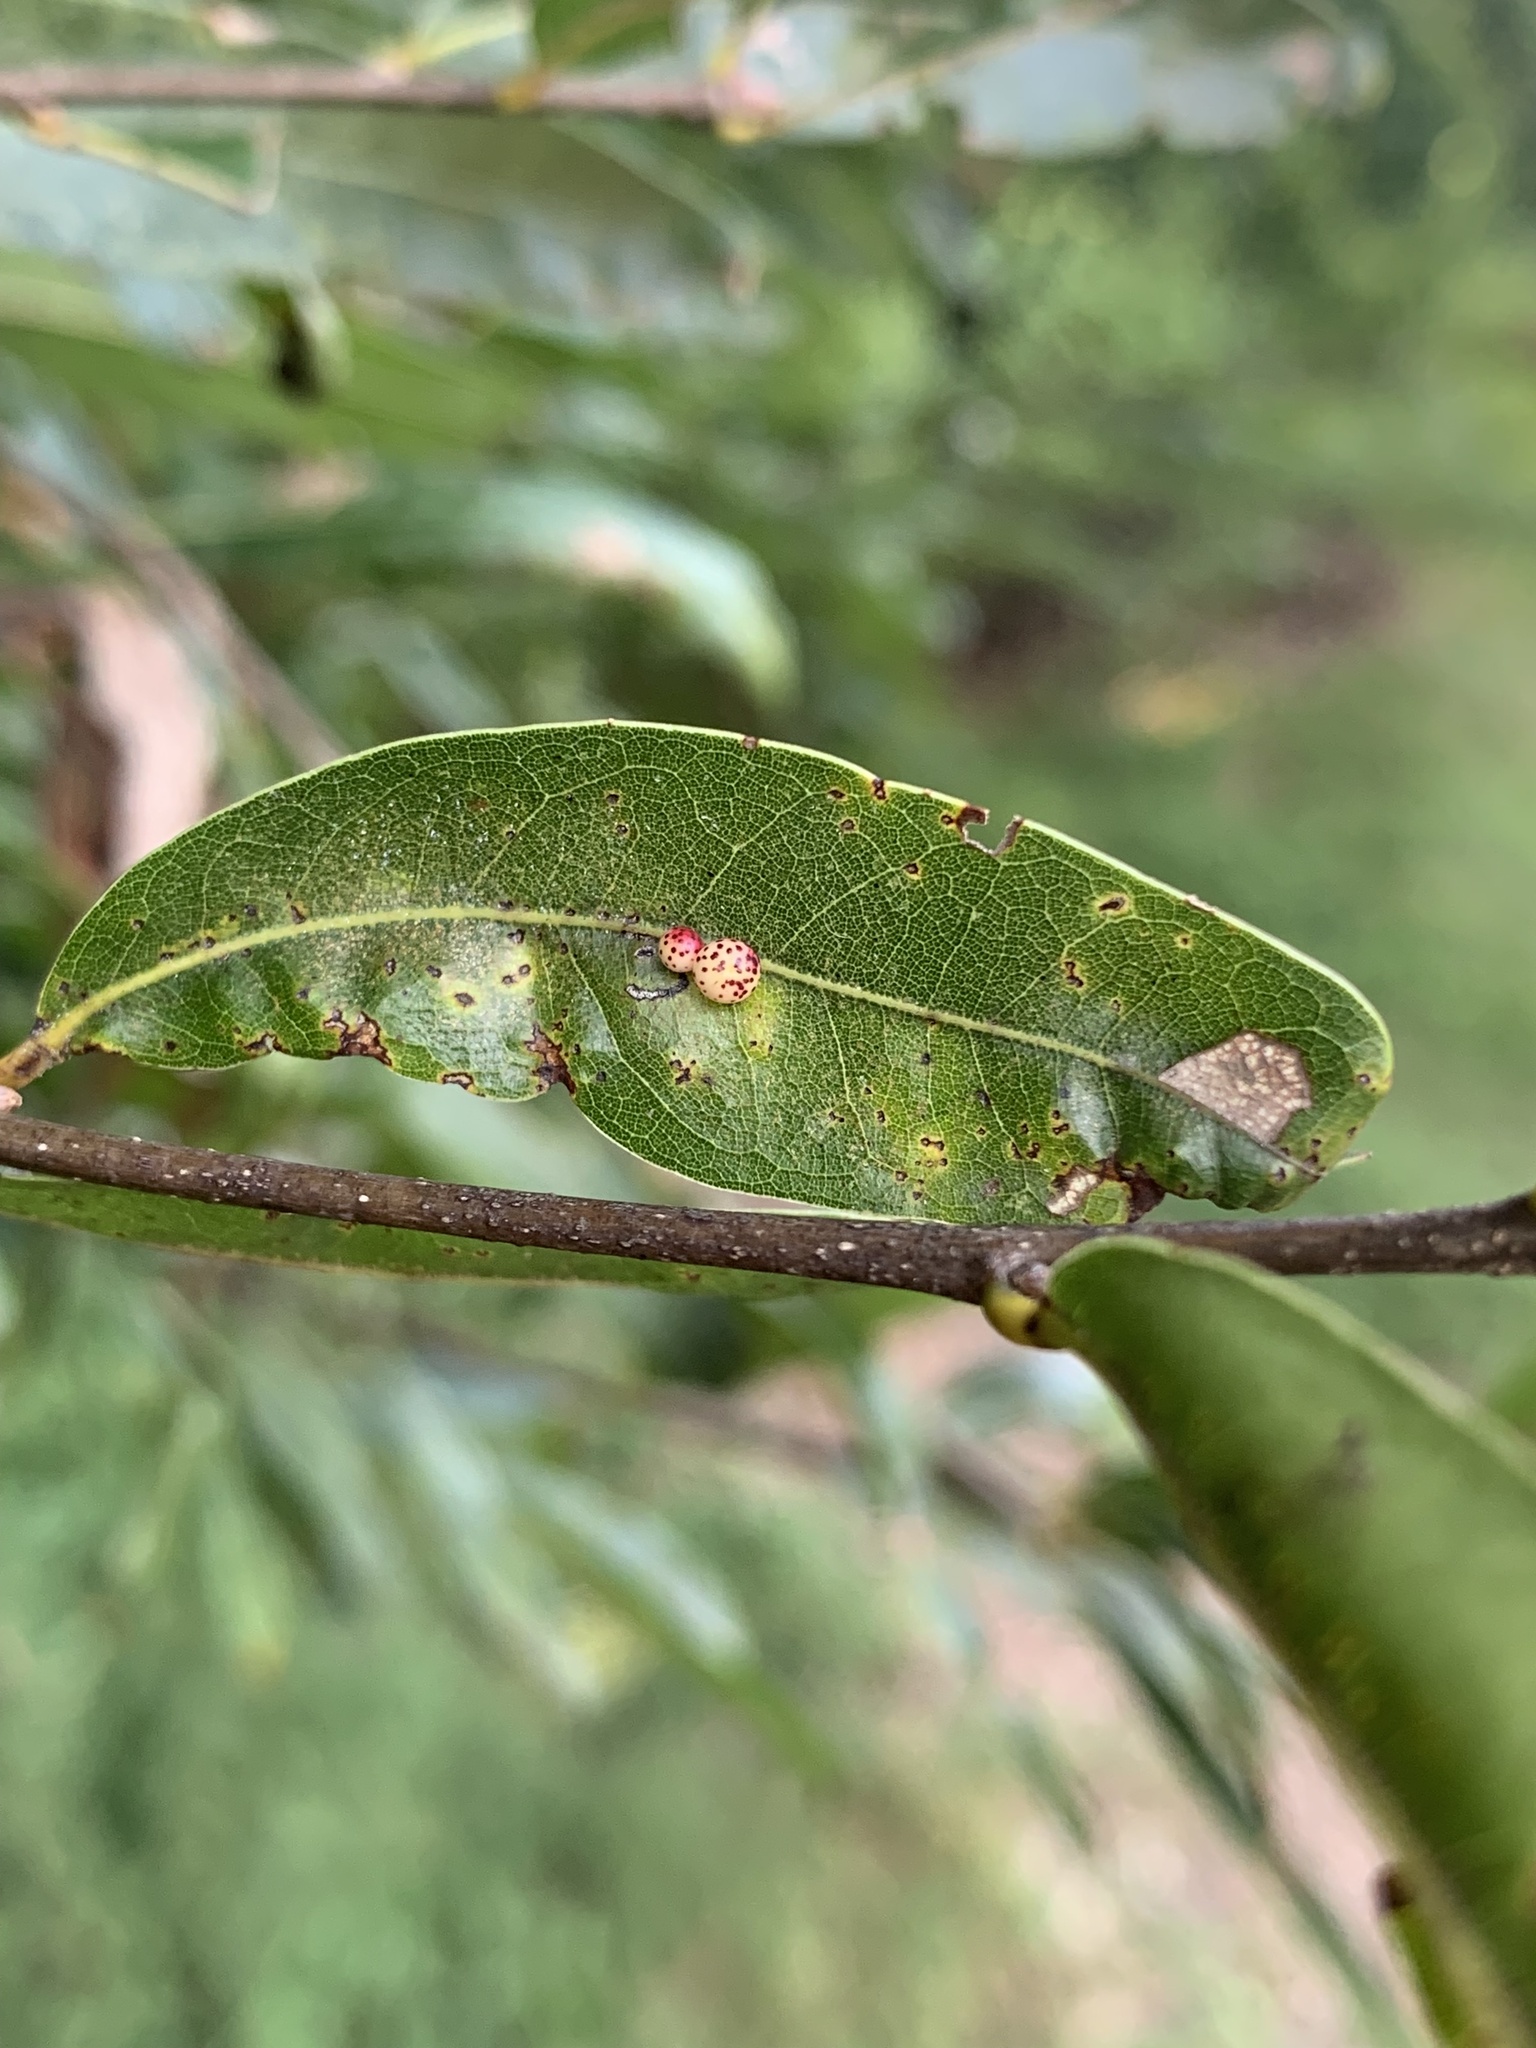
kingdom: Animalia
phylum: Arthropoda
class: Insecta
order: Hymenoptera
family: Cynipidae
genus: Zopheroteras
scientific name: Zopheroteras
